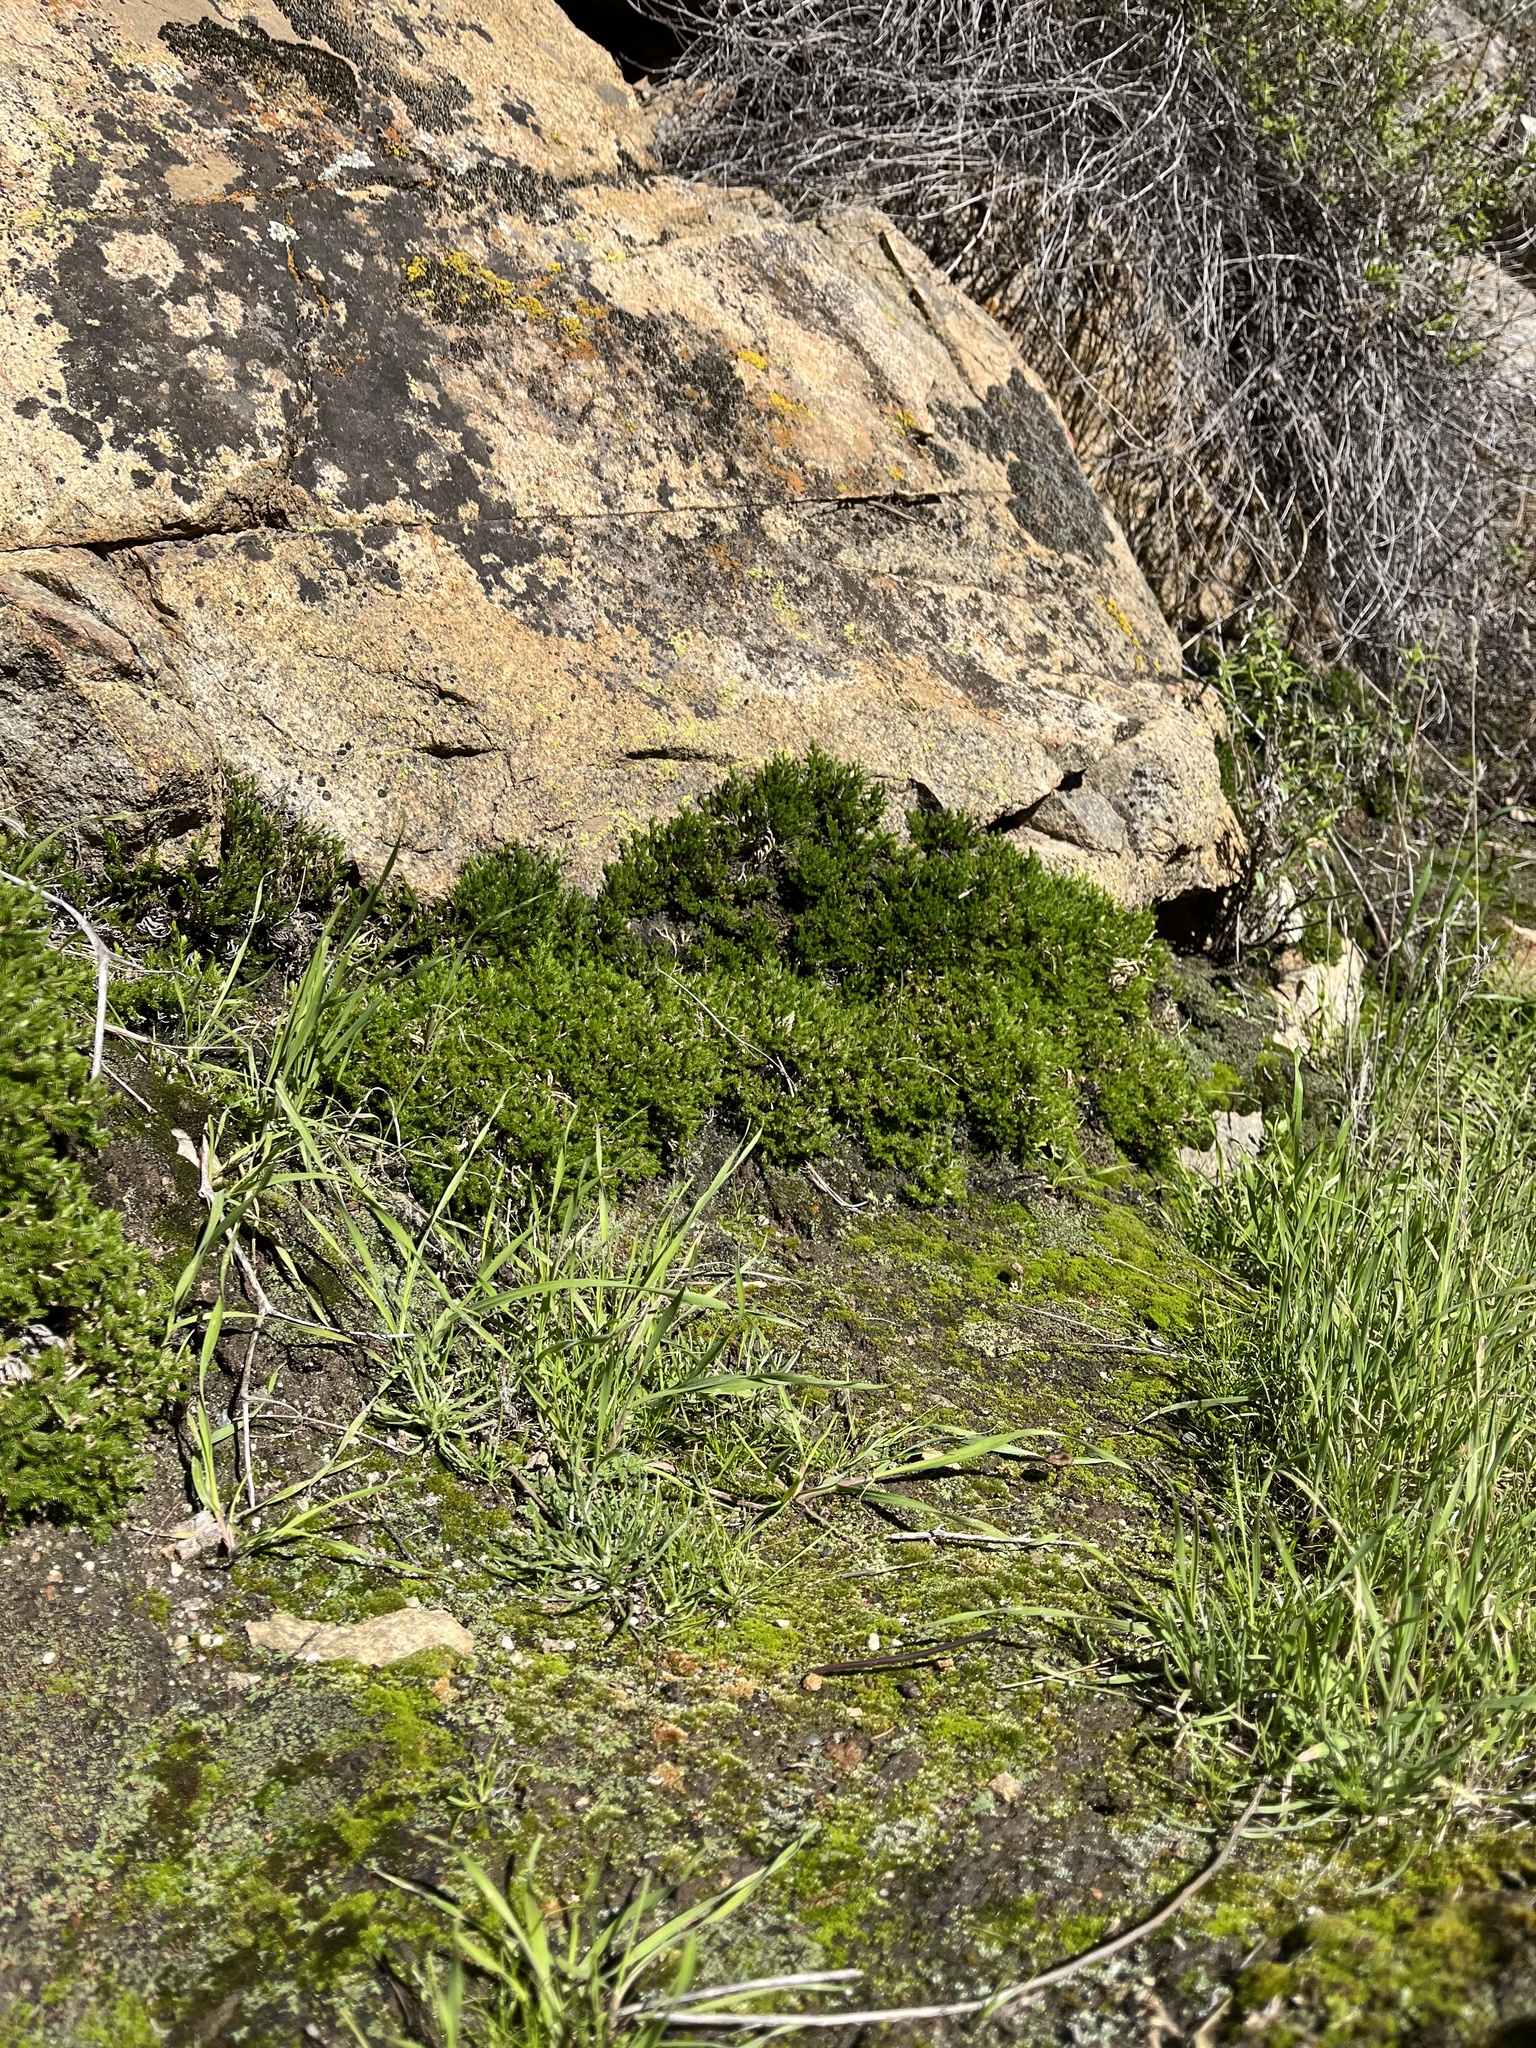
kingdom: Plantae
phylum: Tracheophyta
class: Lycopodiopsida
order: Selaginellales
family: Selaginellaceae
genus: Selaginella
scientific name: Selaginella bigelovii
